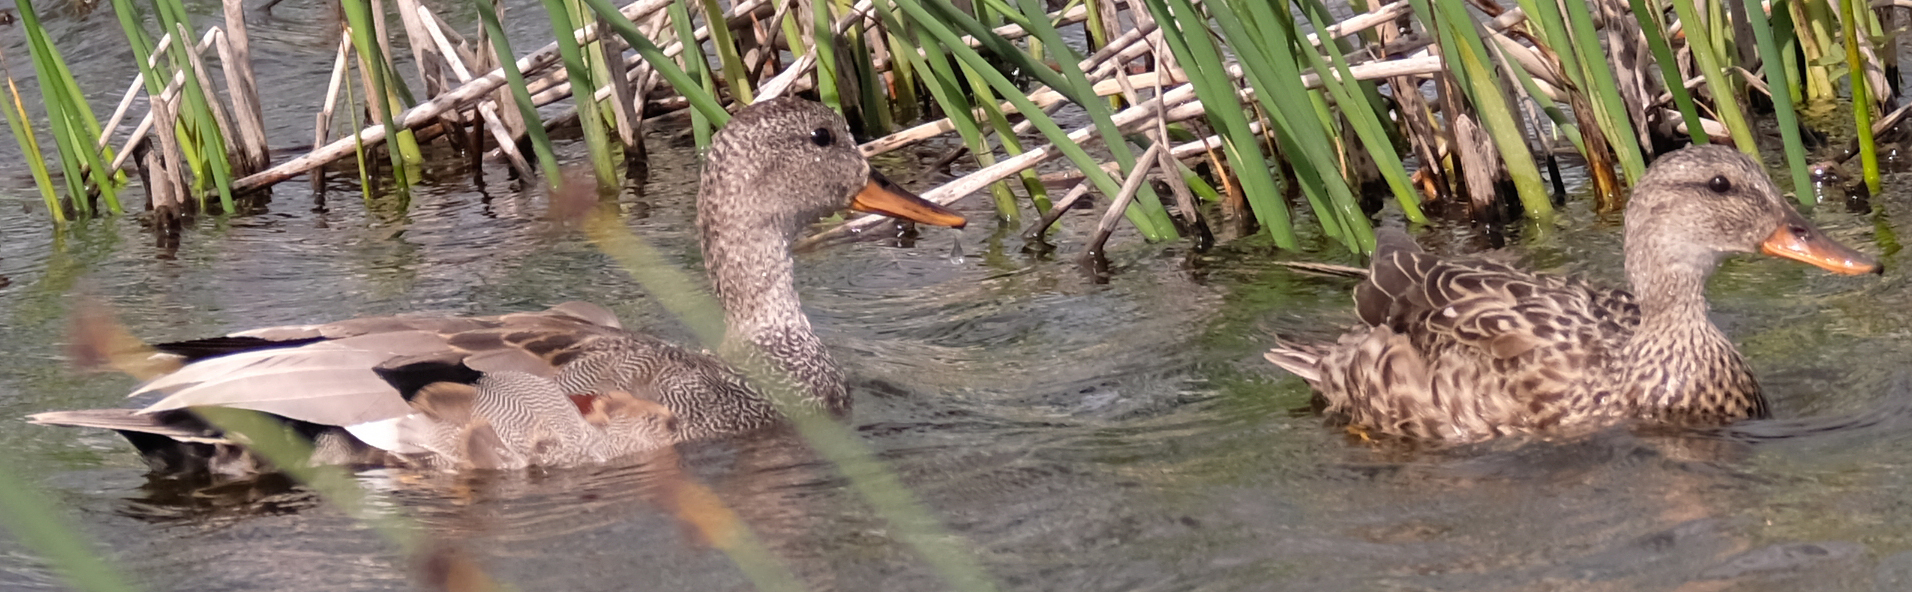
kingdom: Animalia
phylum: Chordata
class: Aves
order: Anseriformes
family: Anatidae
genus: Mareca
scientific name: Mareca strepera
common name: Gadwall
